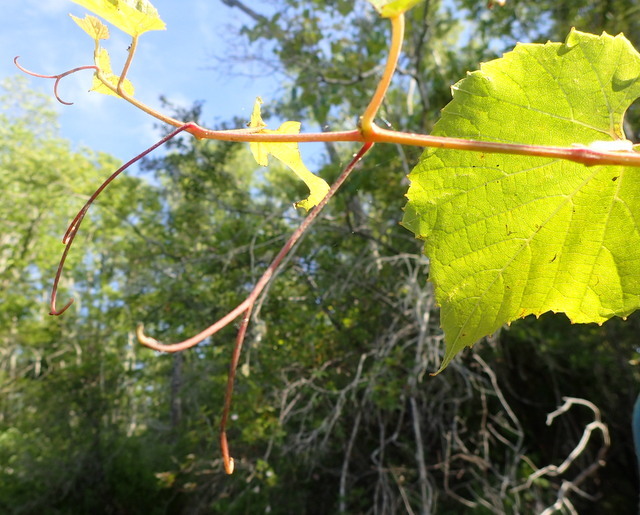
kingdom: Plantae
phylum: Tracheophyta
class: Magnoliopsida
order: Vitales
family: Vitaceae
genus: Vitis
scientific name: Vitis vulpina
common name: Frost grape
